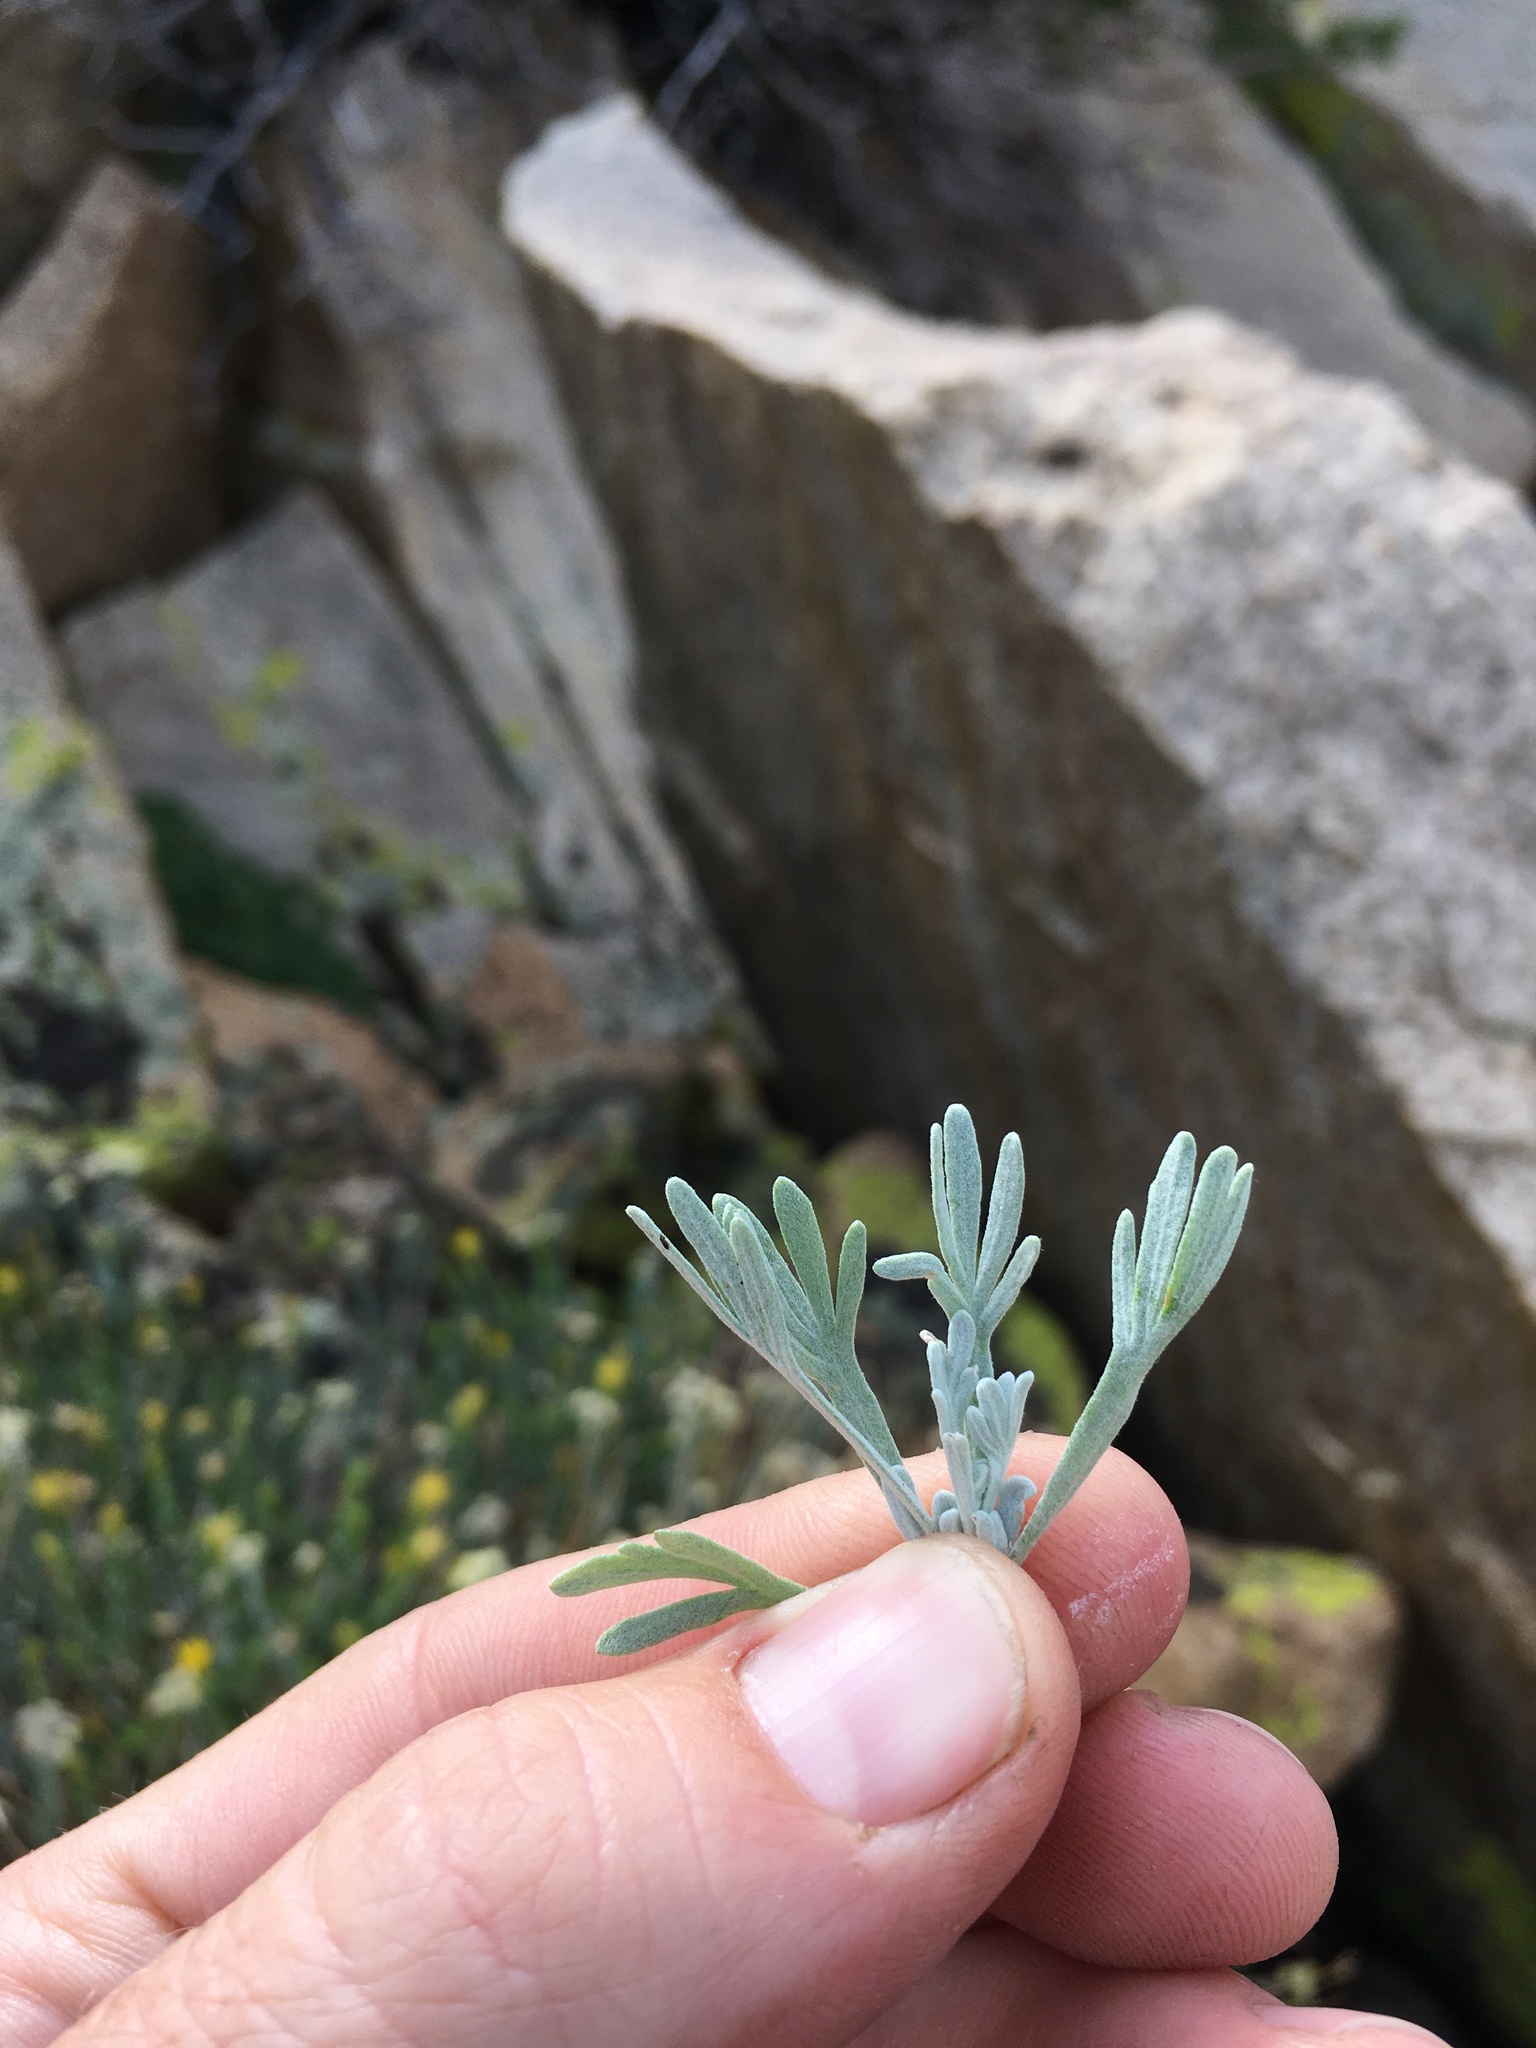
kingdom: Plantae
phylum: Tracheophyta
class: Magnoliopsida
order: Asterales
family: Asteraceae
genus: Artemisia
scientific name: Artemisia albicans
